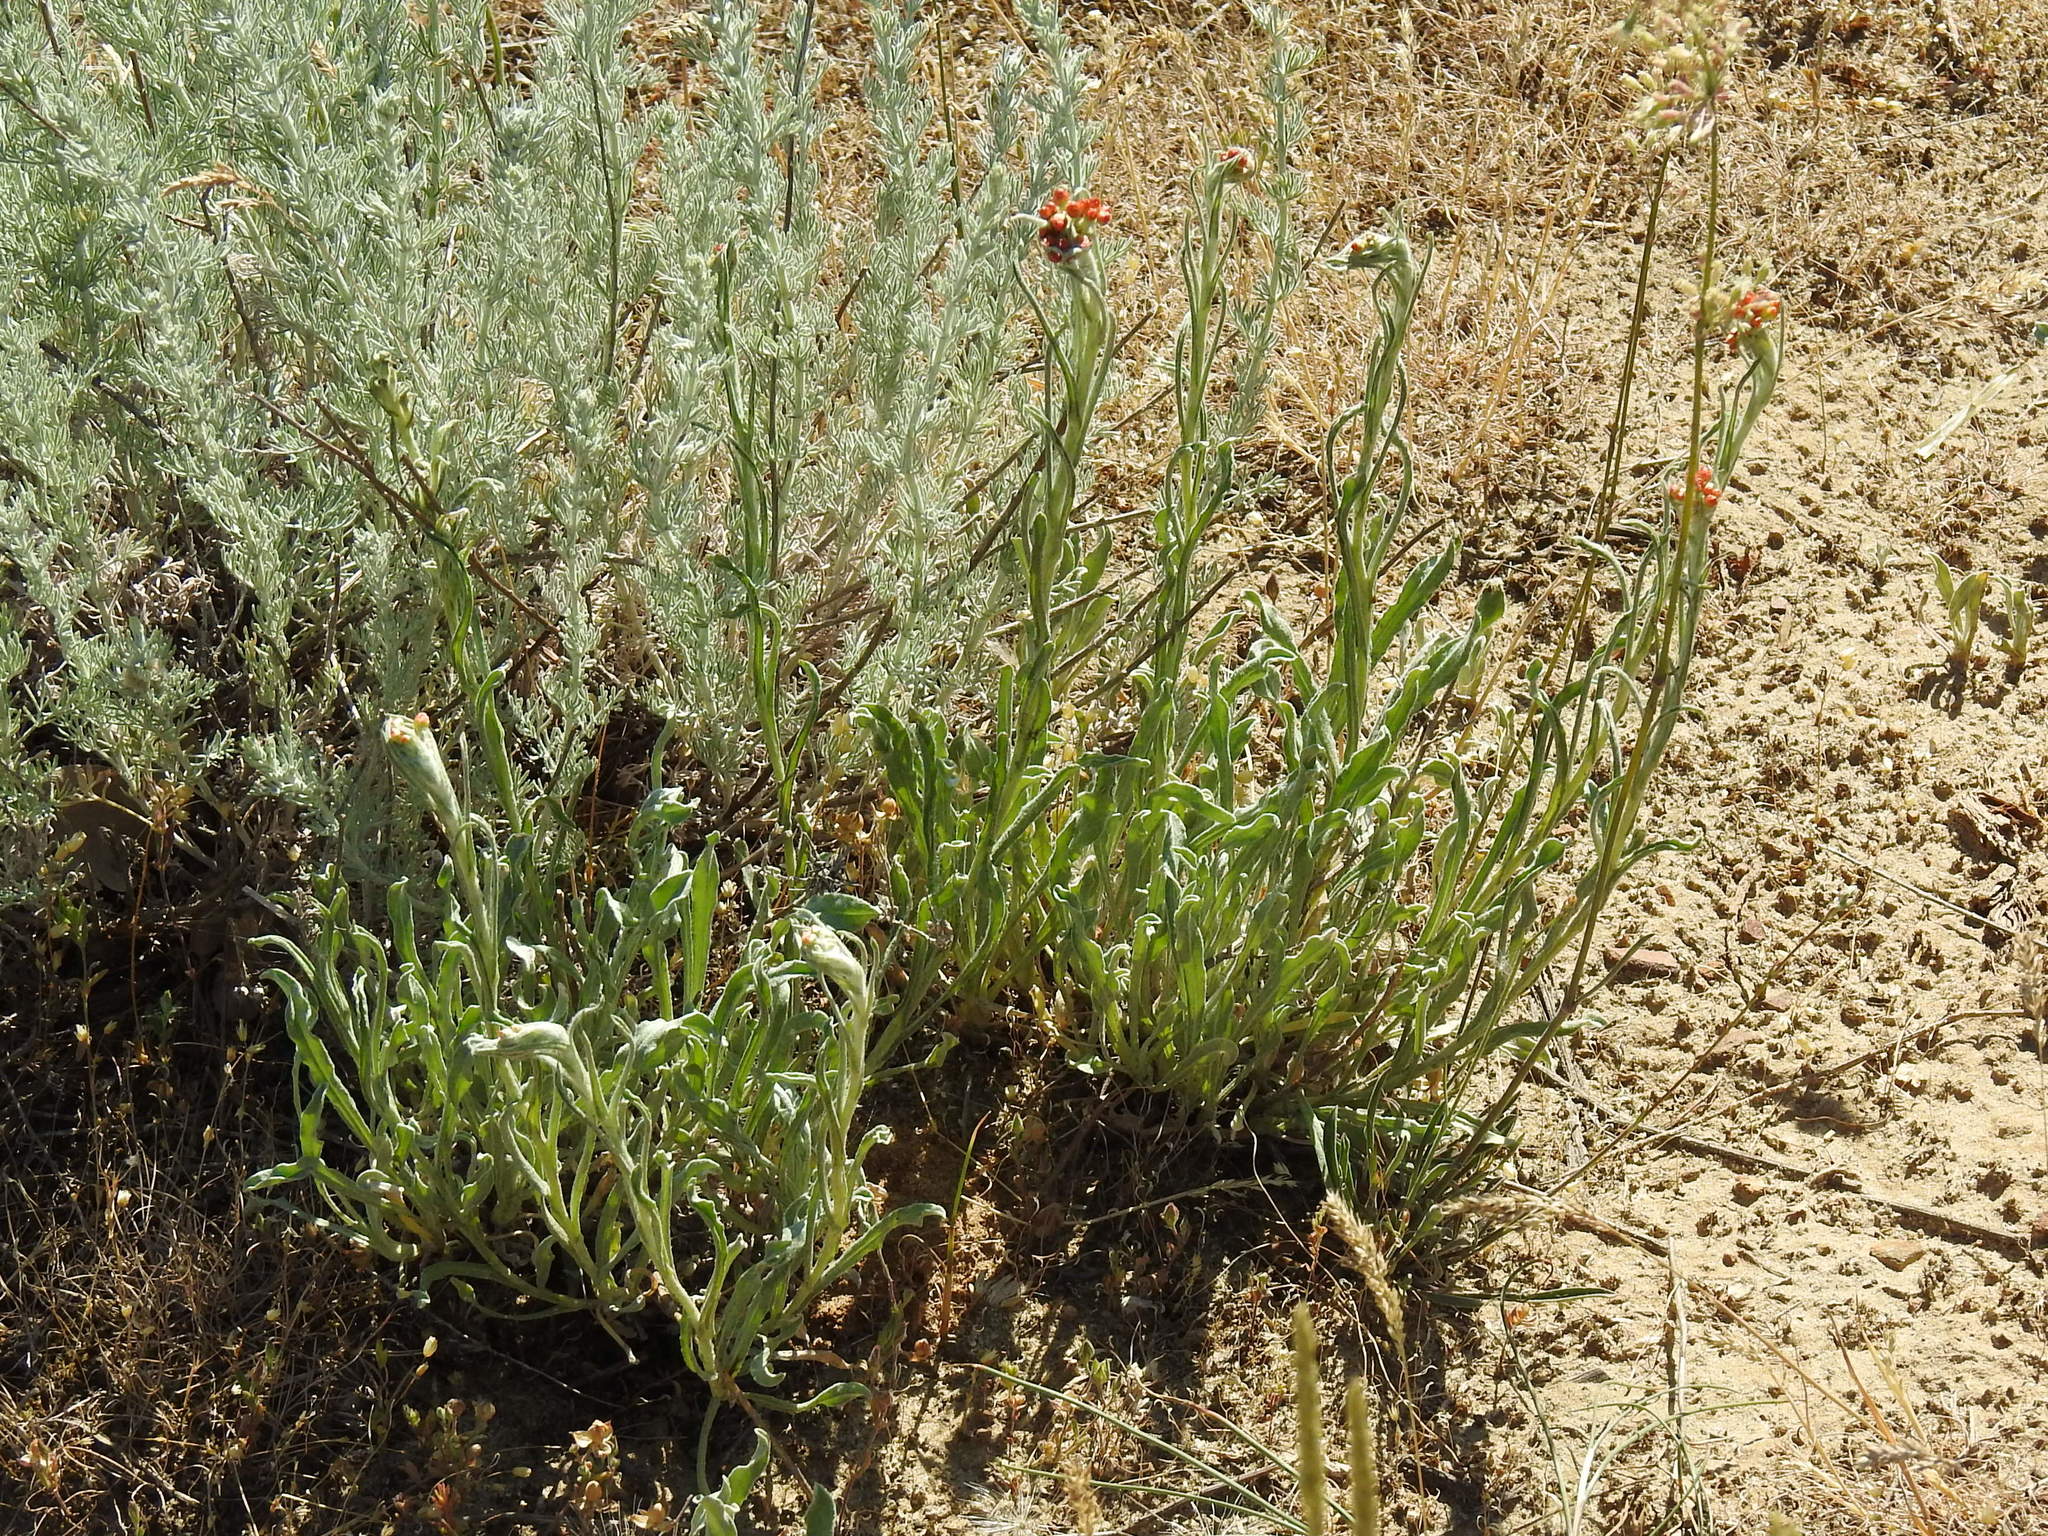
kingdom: Plantae
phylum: Tracheophyta
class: Magnoliopsida
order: Asterales
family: Asteraceae
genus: Helichrysum
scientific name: Helichrysum arenarium
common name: Strawflower
